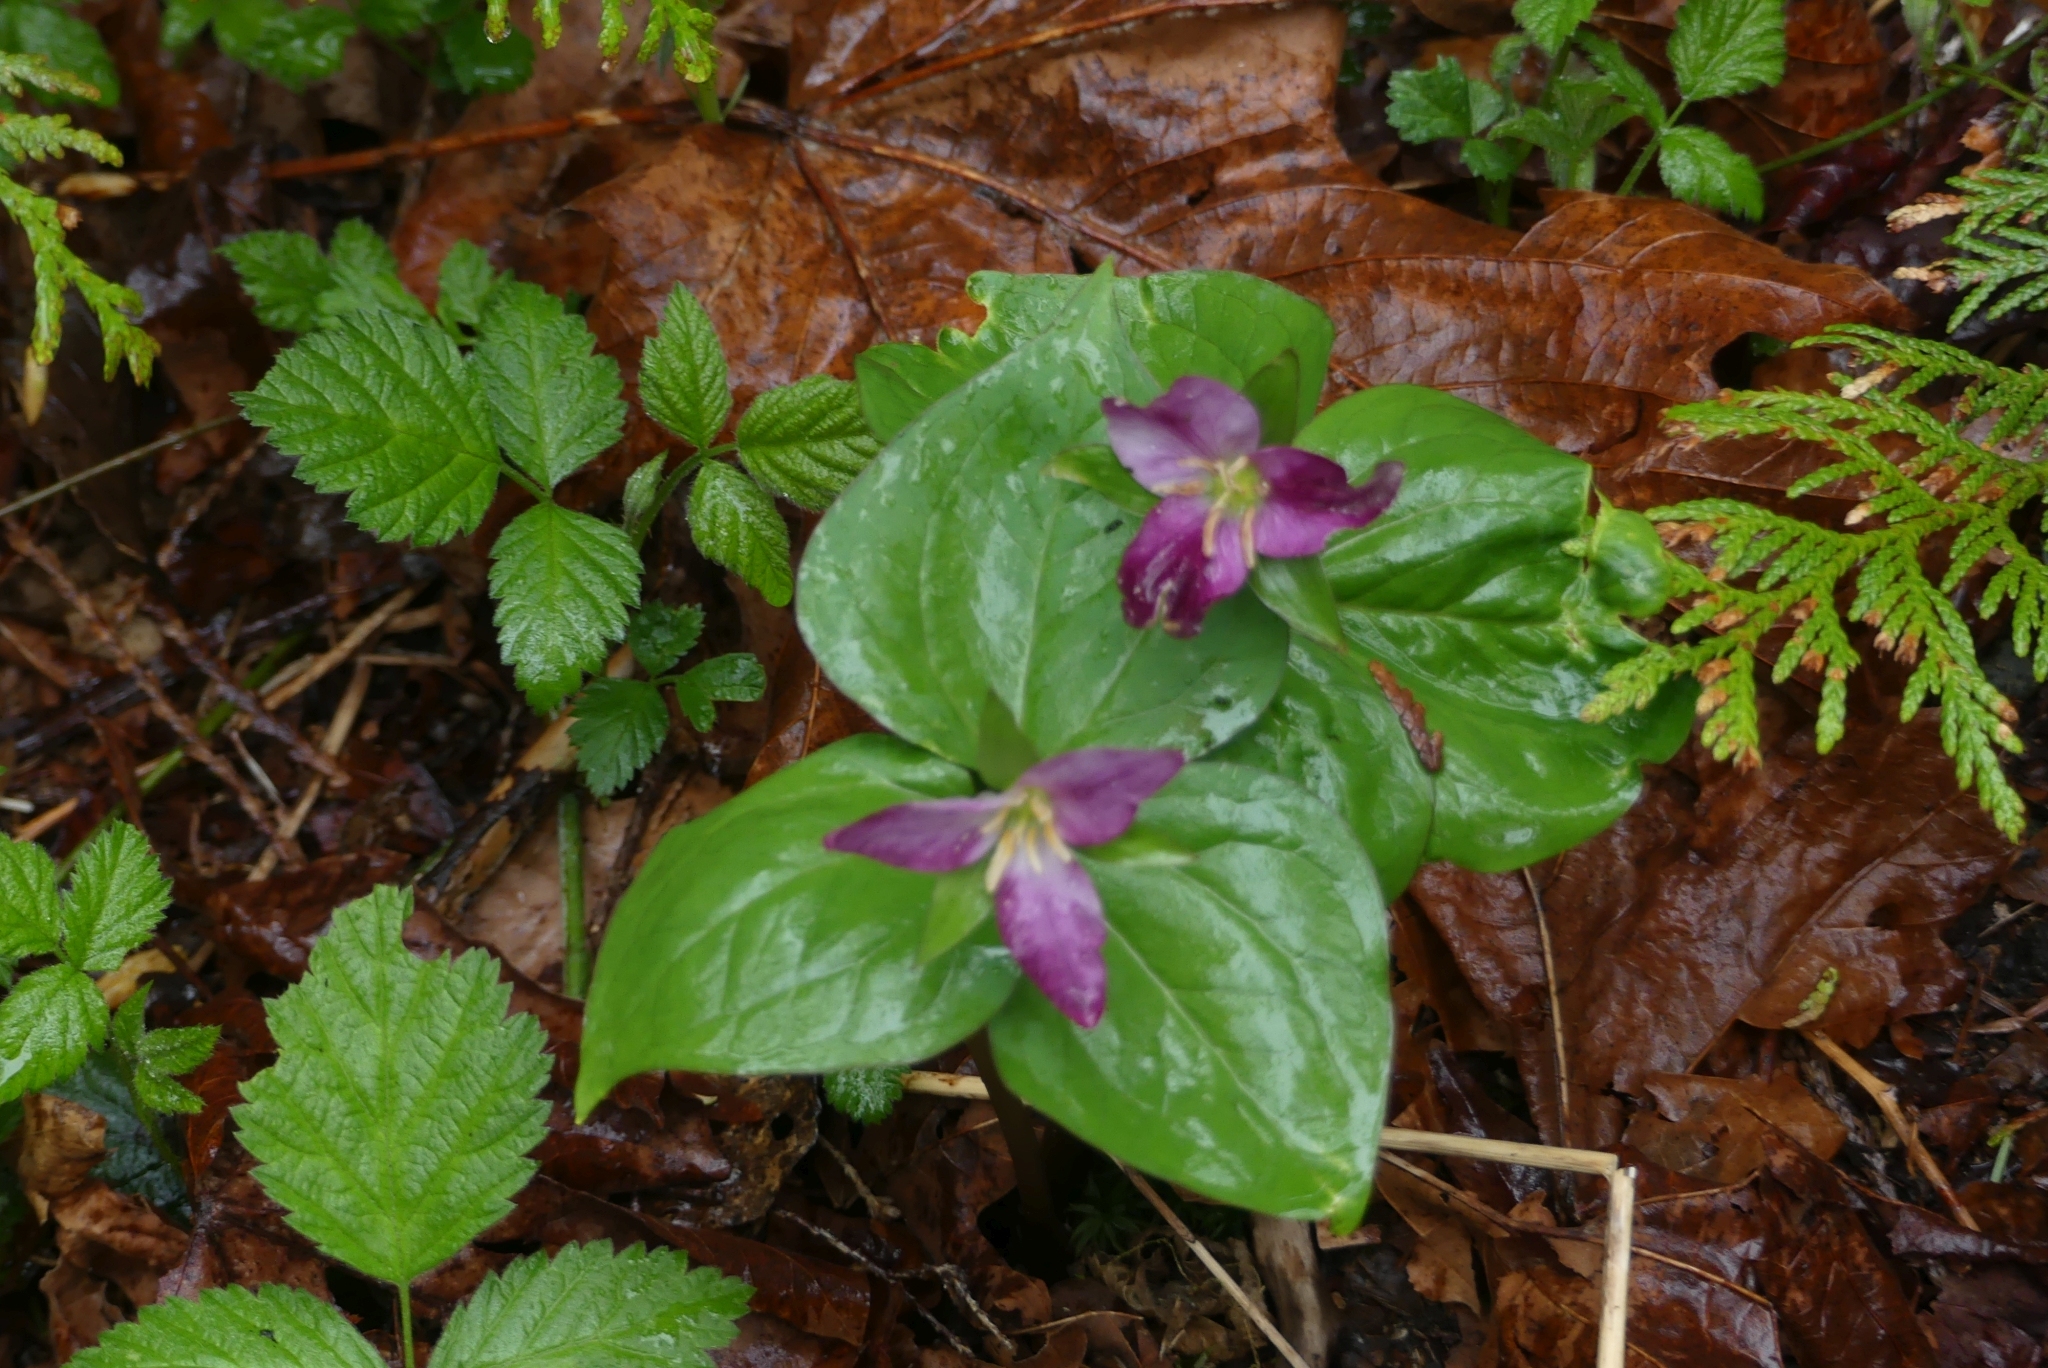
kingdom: Plantae
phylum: Tracheophyta
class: Liliopsida
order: Liliales
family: Melanthiaceae
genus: Trillium
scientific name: Trillium ovatum
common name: Pacific trillium
